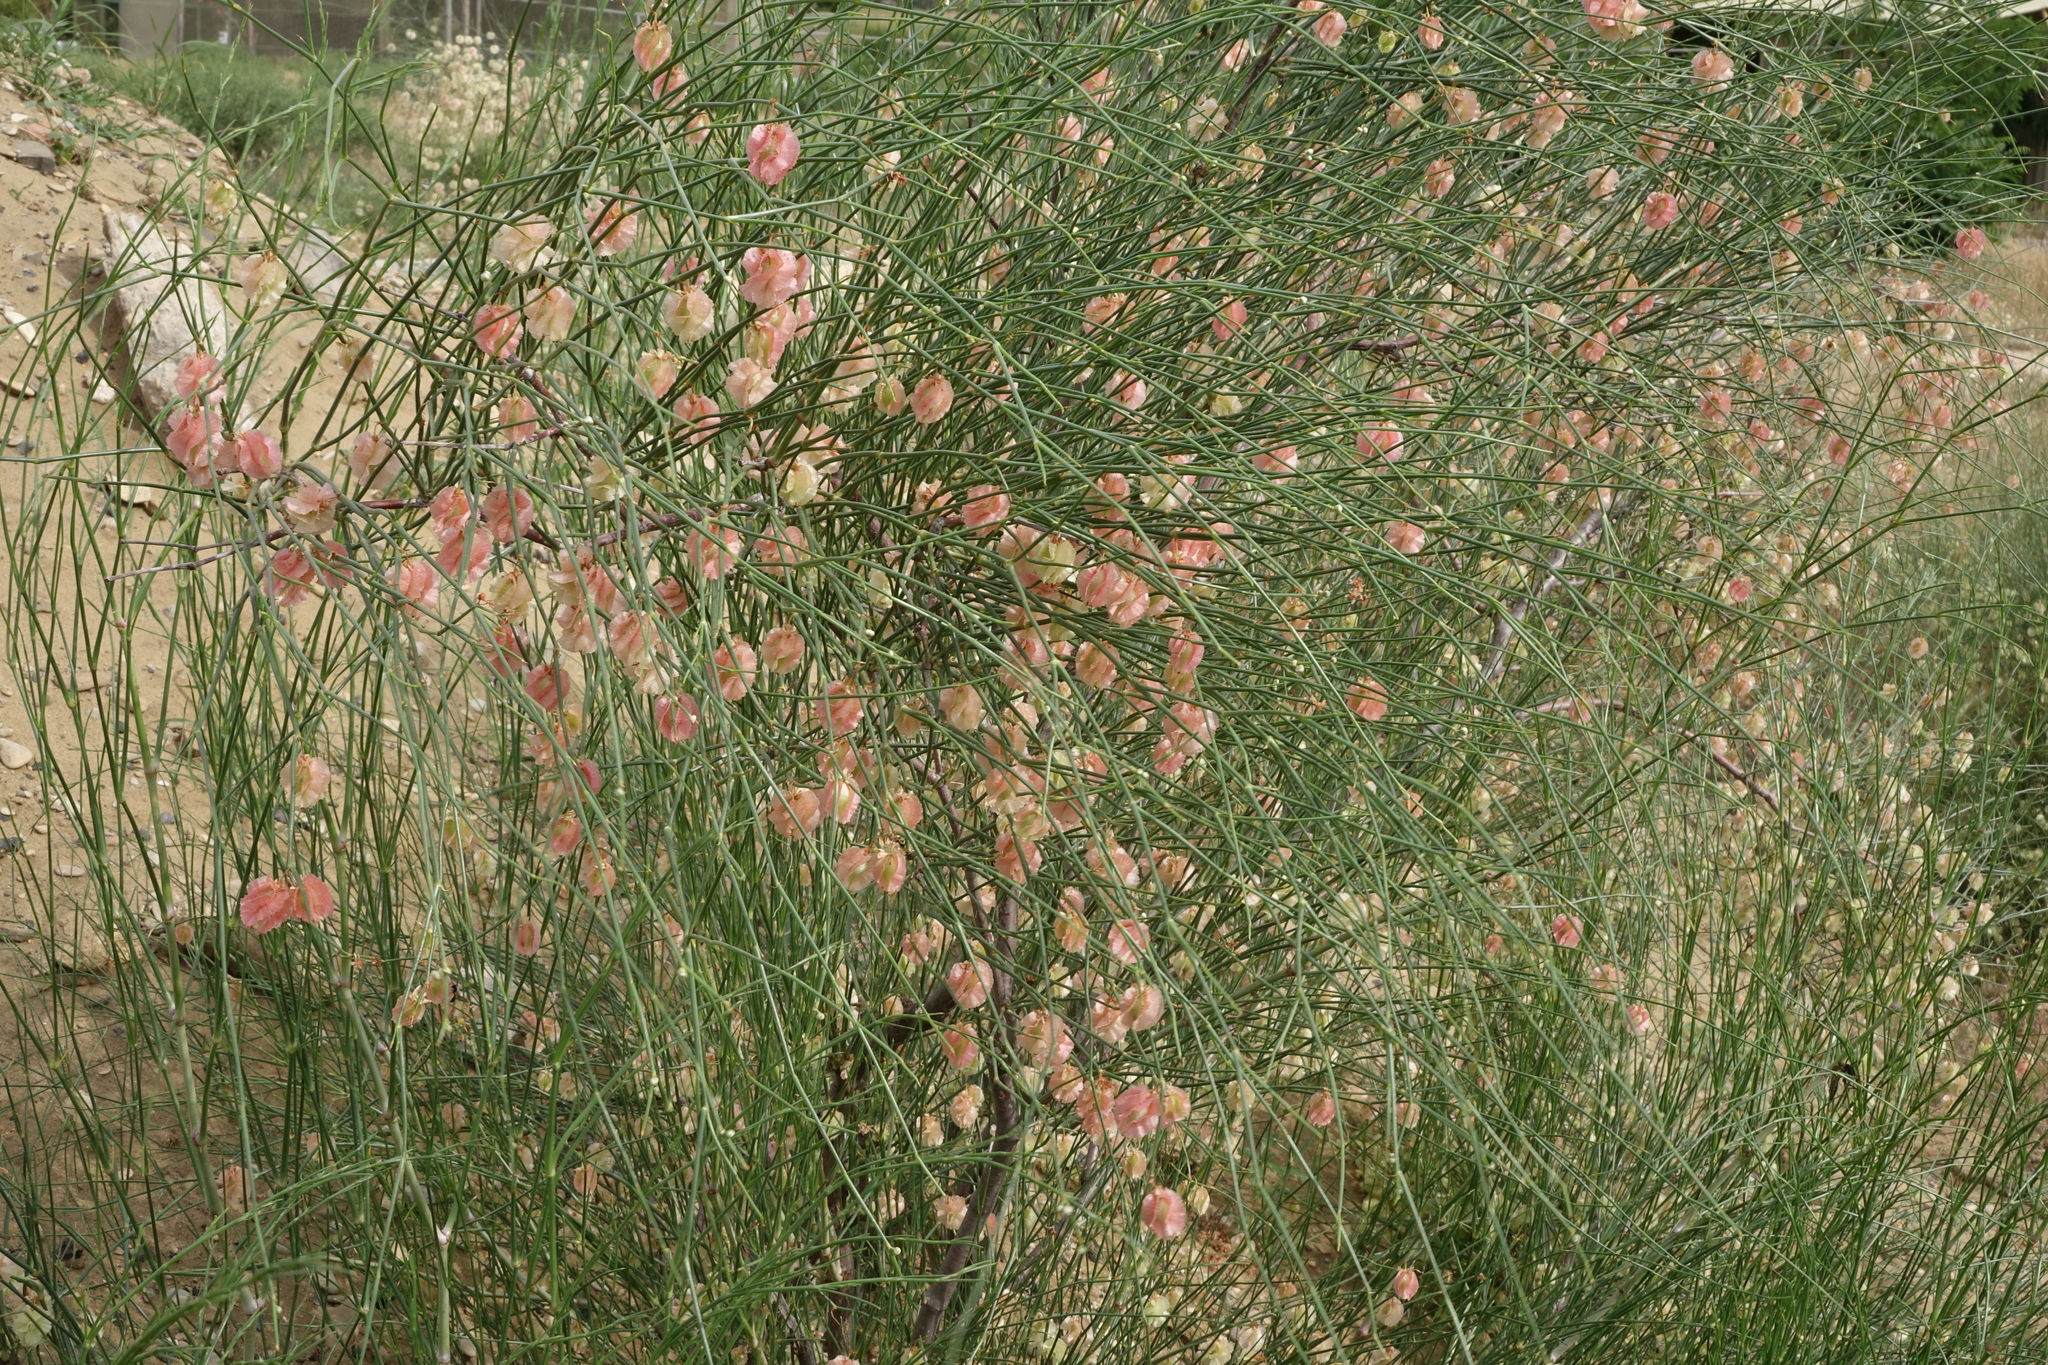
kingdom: Plantae
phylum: Tracheophyta
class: Magnoliopsida
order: Caryophyllales
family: Polygonaceae
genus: Calligonum
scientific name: Calligonum aphyllum
